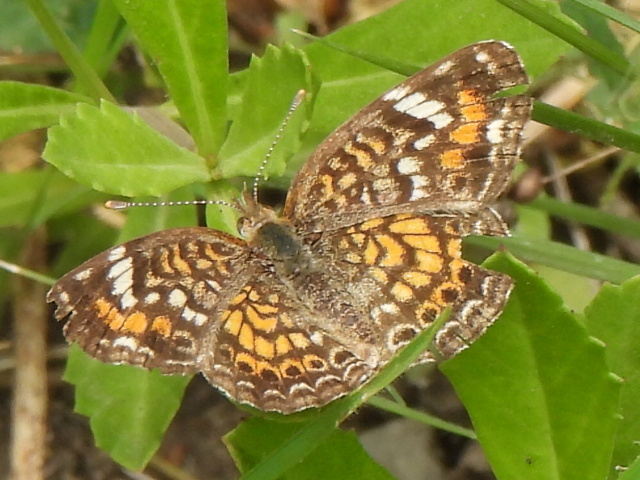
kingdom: Animalia
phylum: Arthropoda
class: Insecta
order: Lepidoptera
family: Nymphalidae
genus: Phyciodes
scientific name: Phyciodes phaon
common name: Phaon crescent
